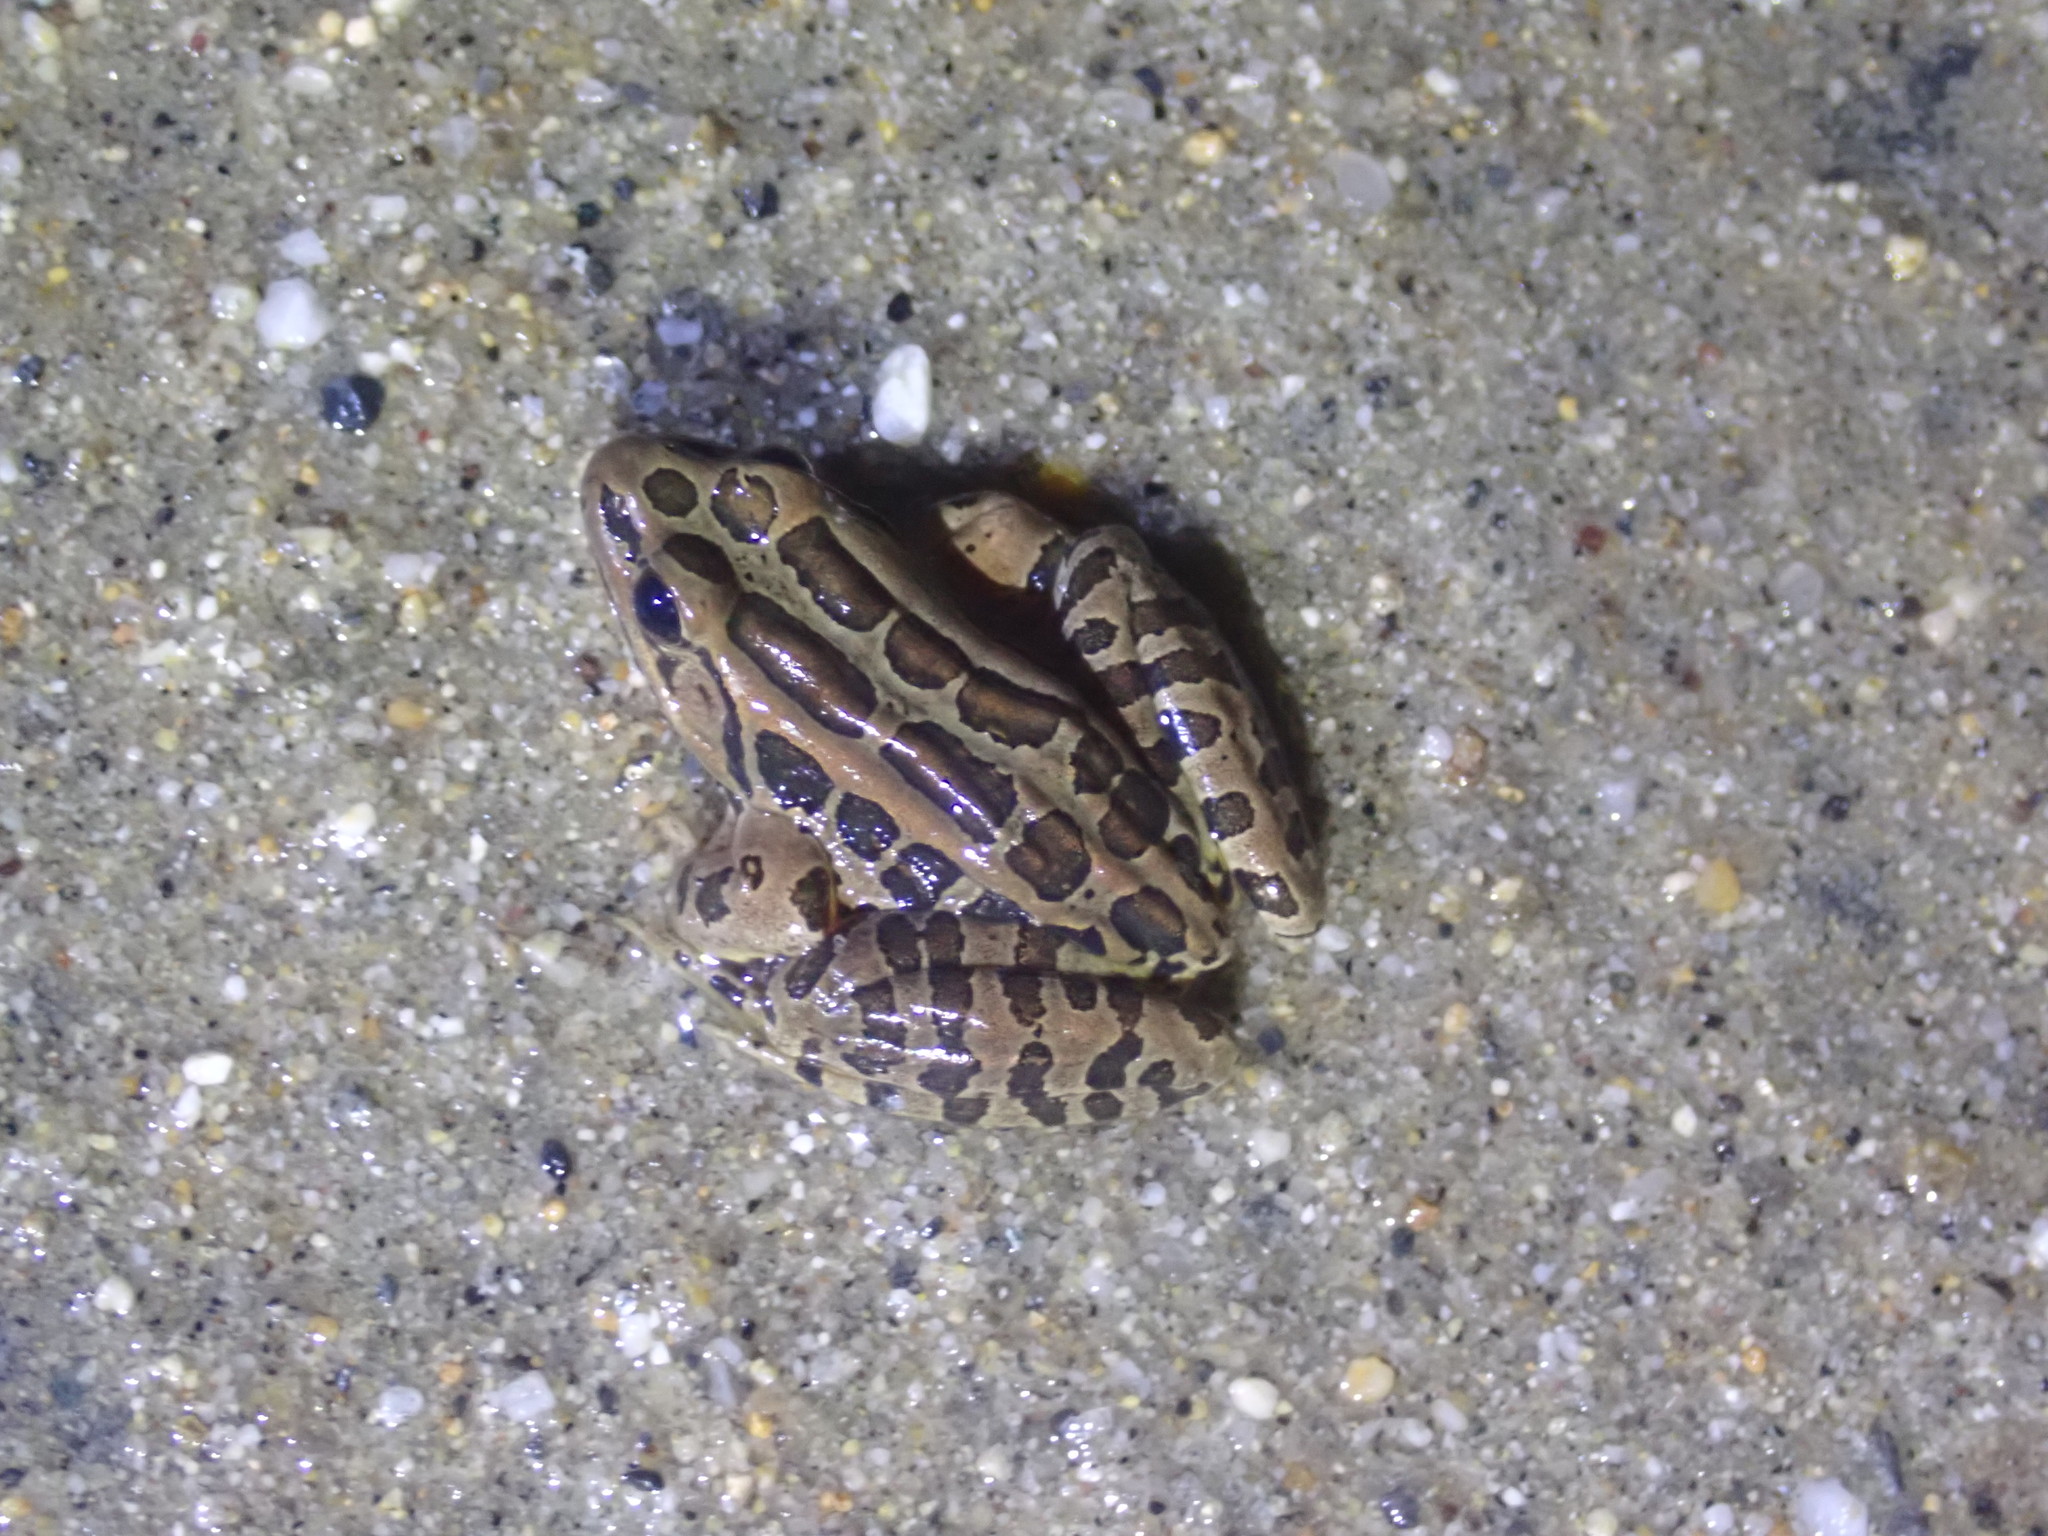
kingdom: Animalia
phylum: Chordata
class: Amphibia
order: Anura
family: Ranidae
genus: Lithobates
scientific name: Lithobates palustris
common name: Pickerel frog
